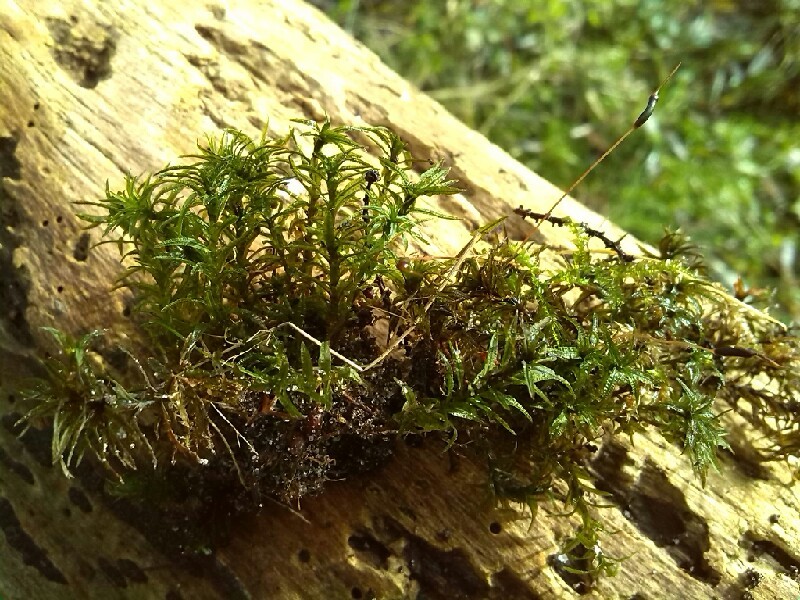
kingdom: Plantae
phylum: Bryophyta
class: Polytrichopsida
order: Polytrichales
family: Polytrichaceae
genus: Atrichum
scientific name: Atrichum undulatum
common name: Common smoothcap
